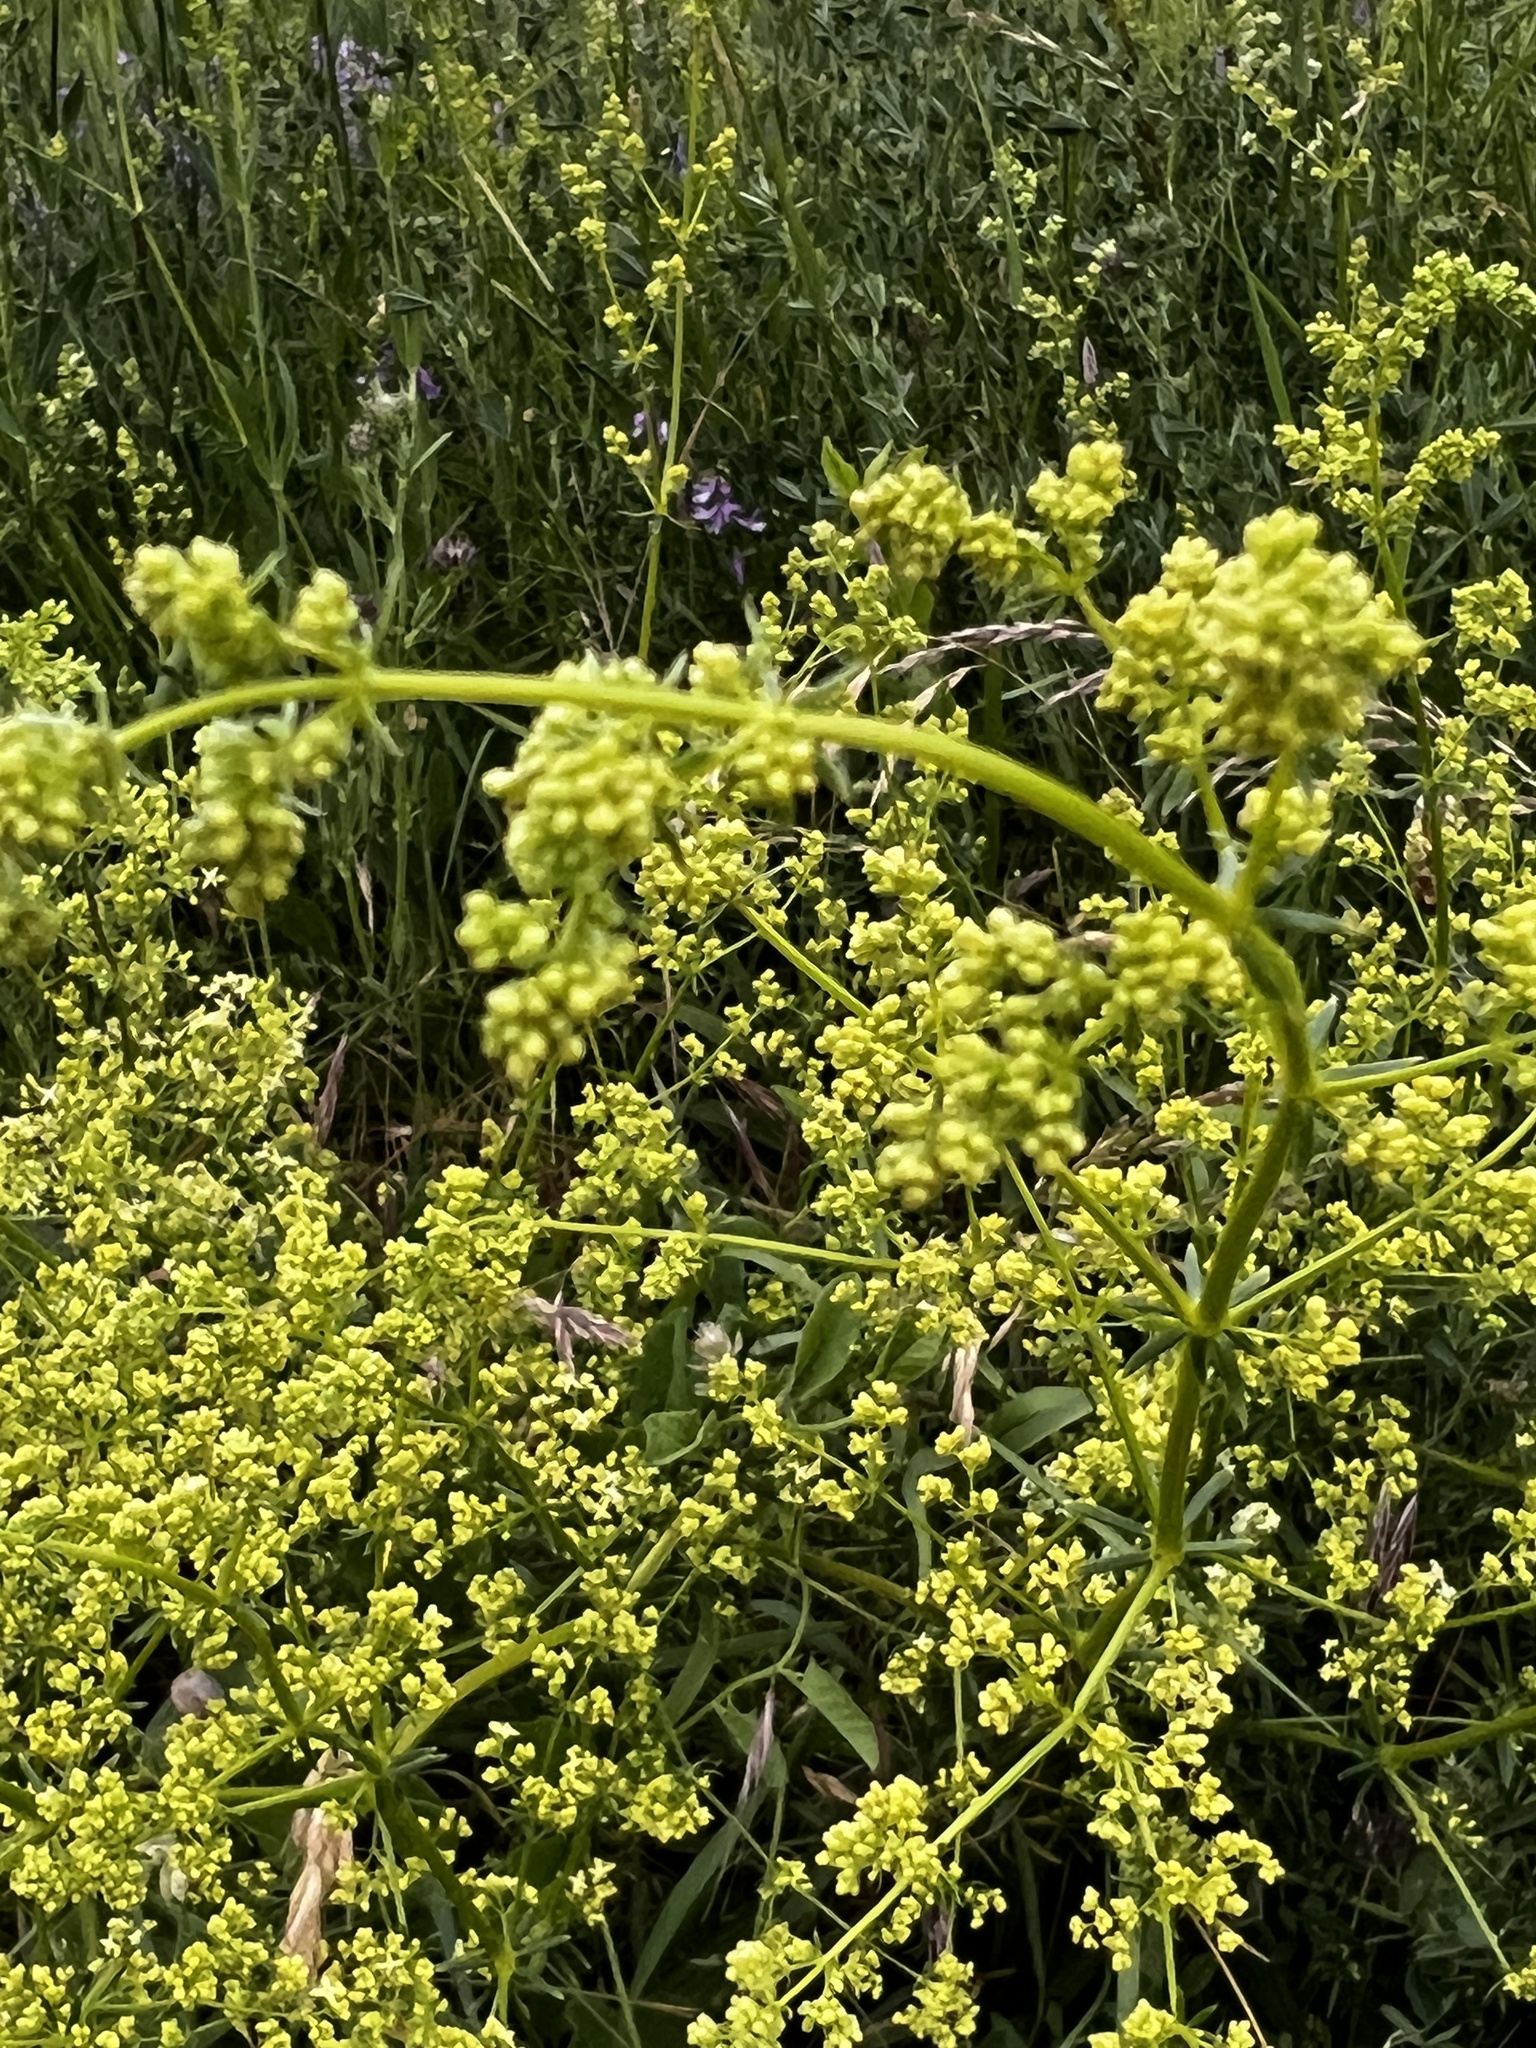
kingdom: Plantae
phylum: Tracheophyta
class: Magnoliopsida
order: Gentianales
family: Rubiaceae
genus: Galium
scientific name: Galium verum
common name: Lady's bedstraw
